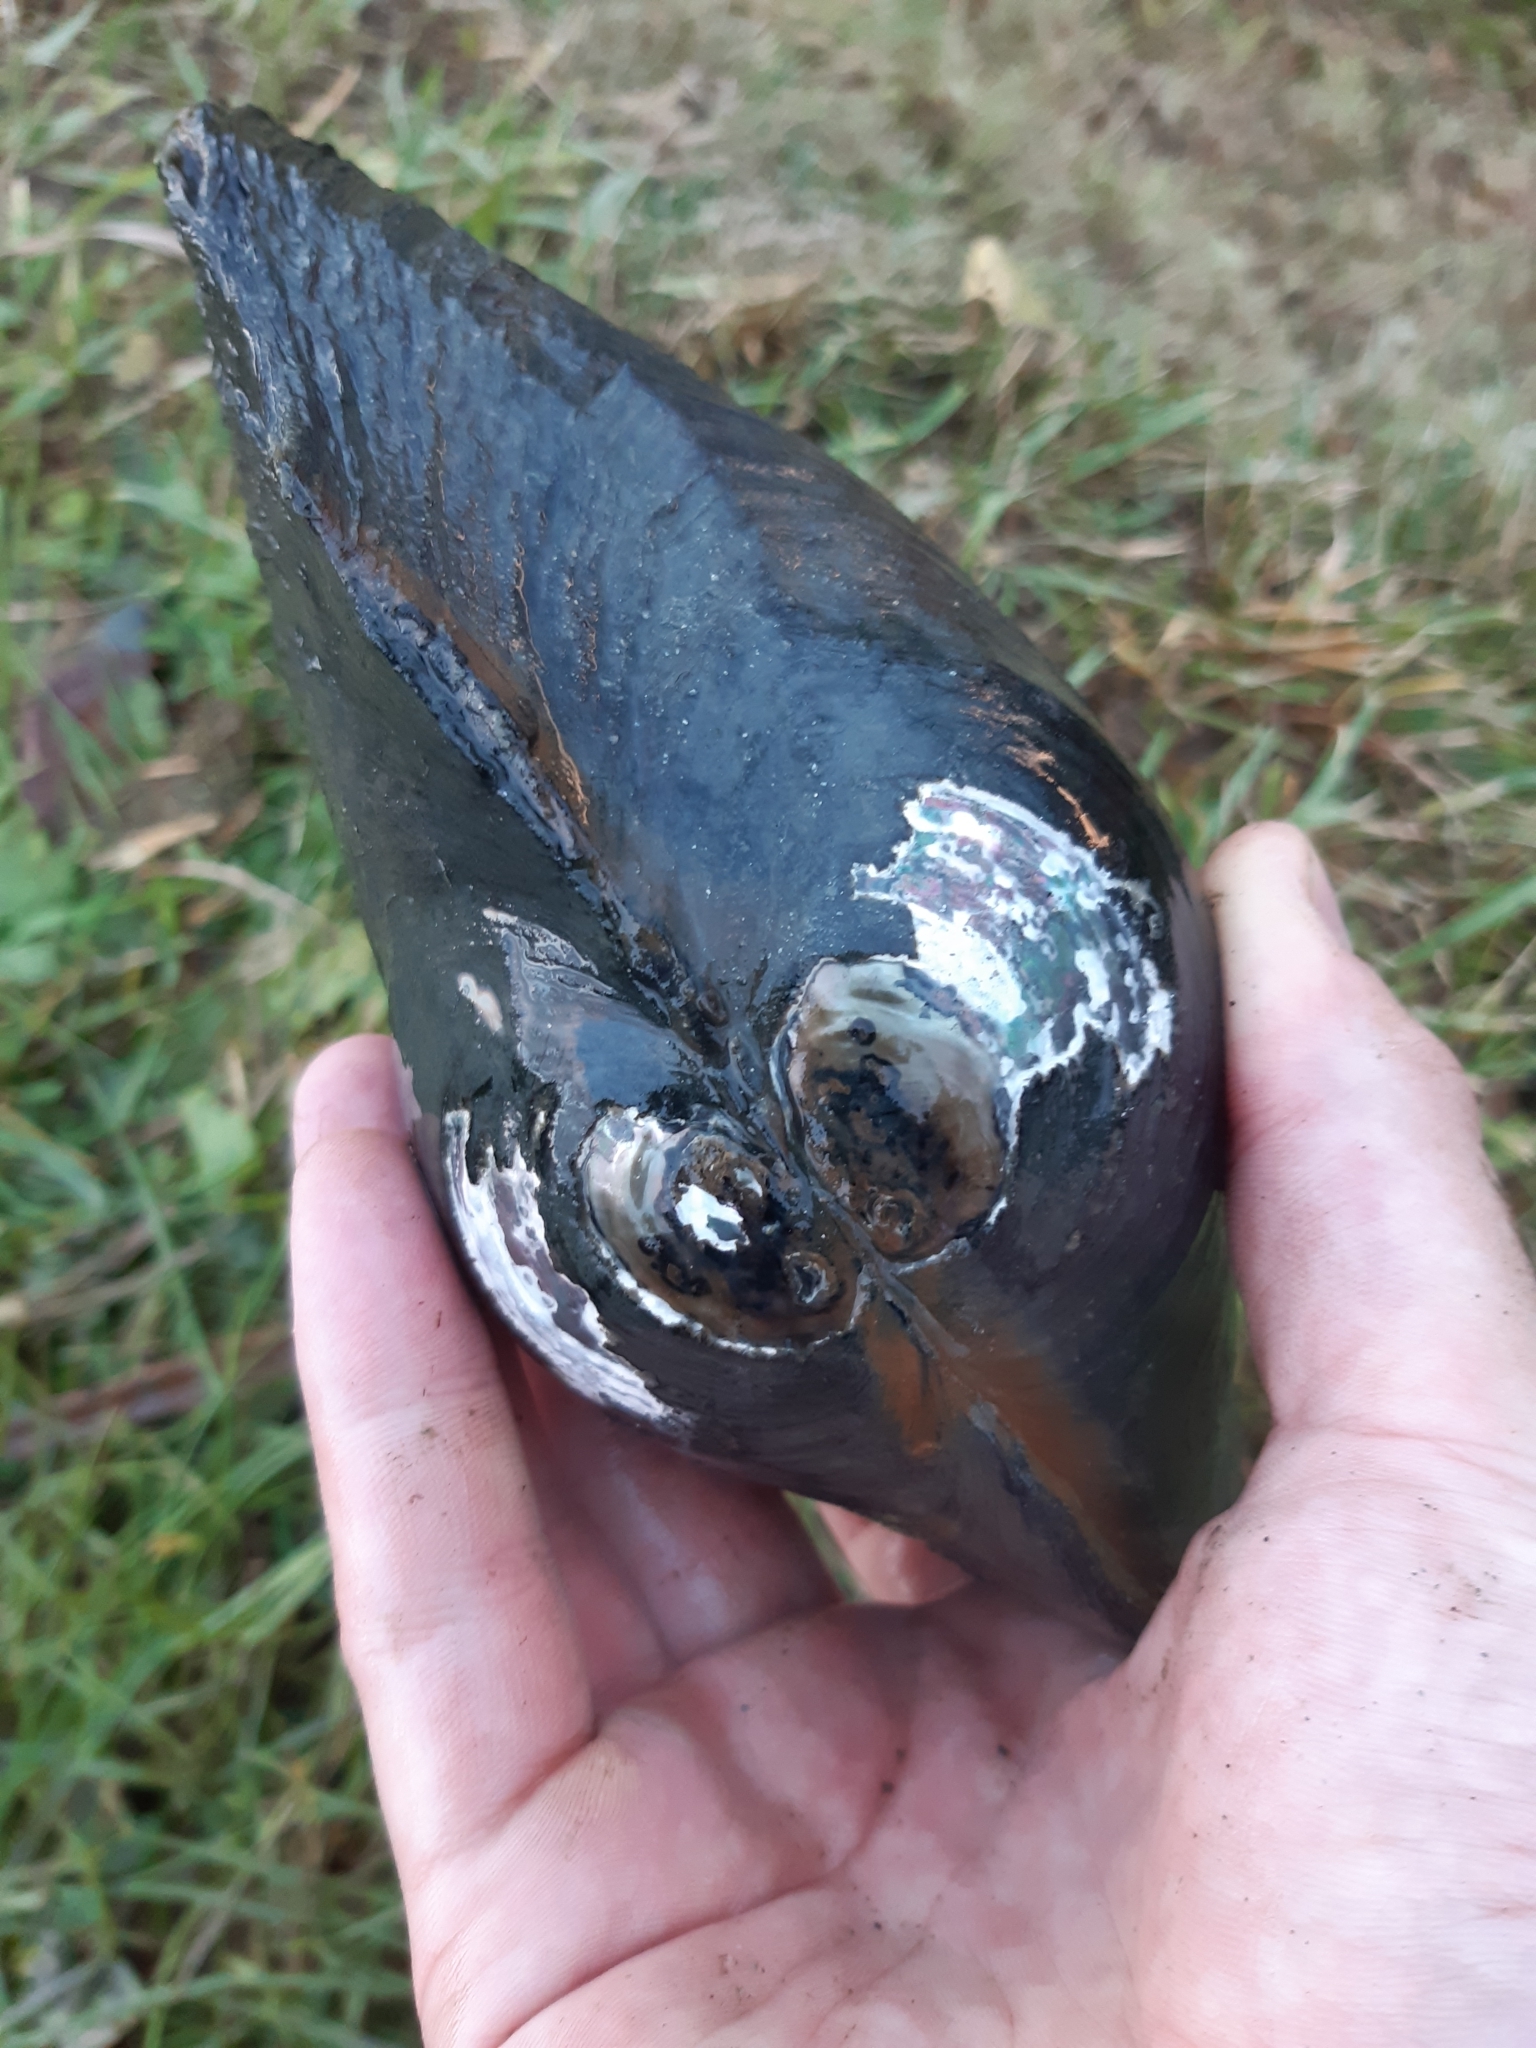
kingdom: Animalia
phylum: Mollusca
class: Bivalvia
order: Unionida
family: Unionidae
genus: Sinanodonta
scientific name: Sinanodonta woodiana
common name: Chinese pond mussel
